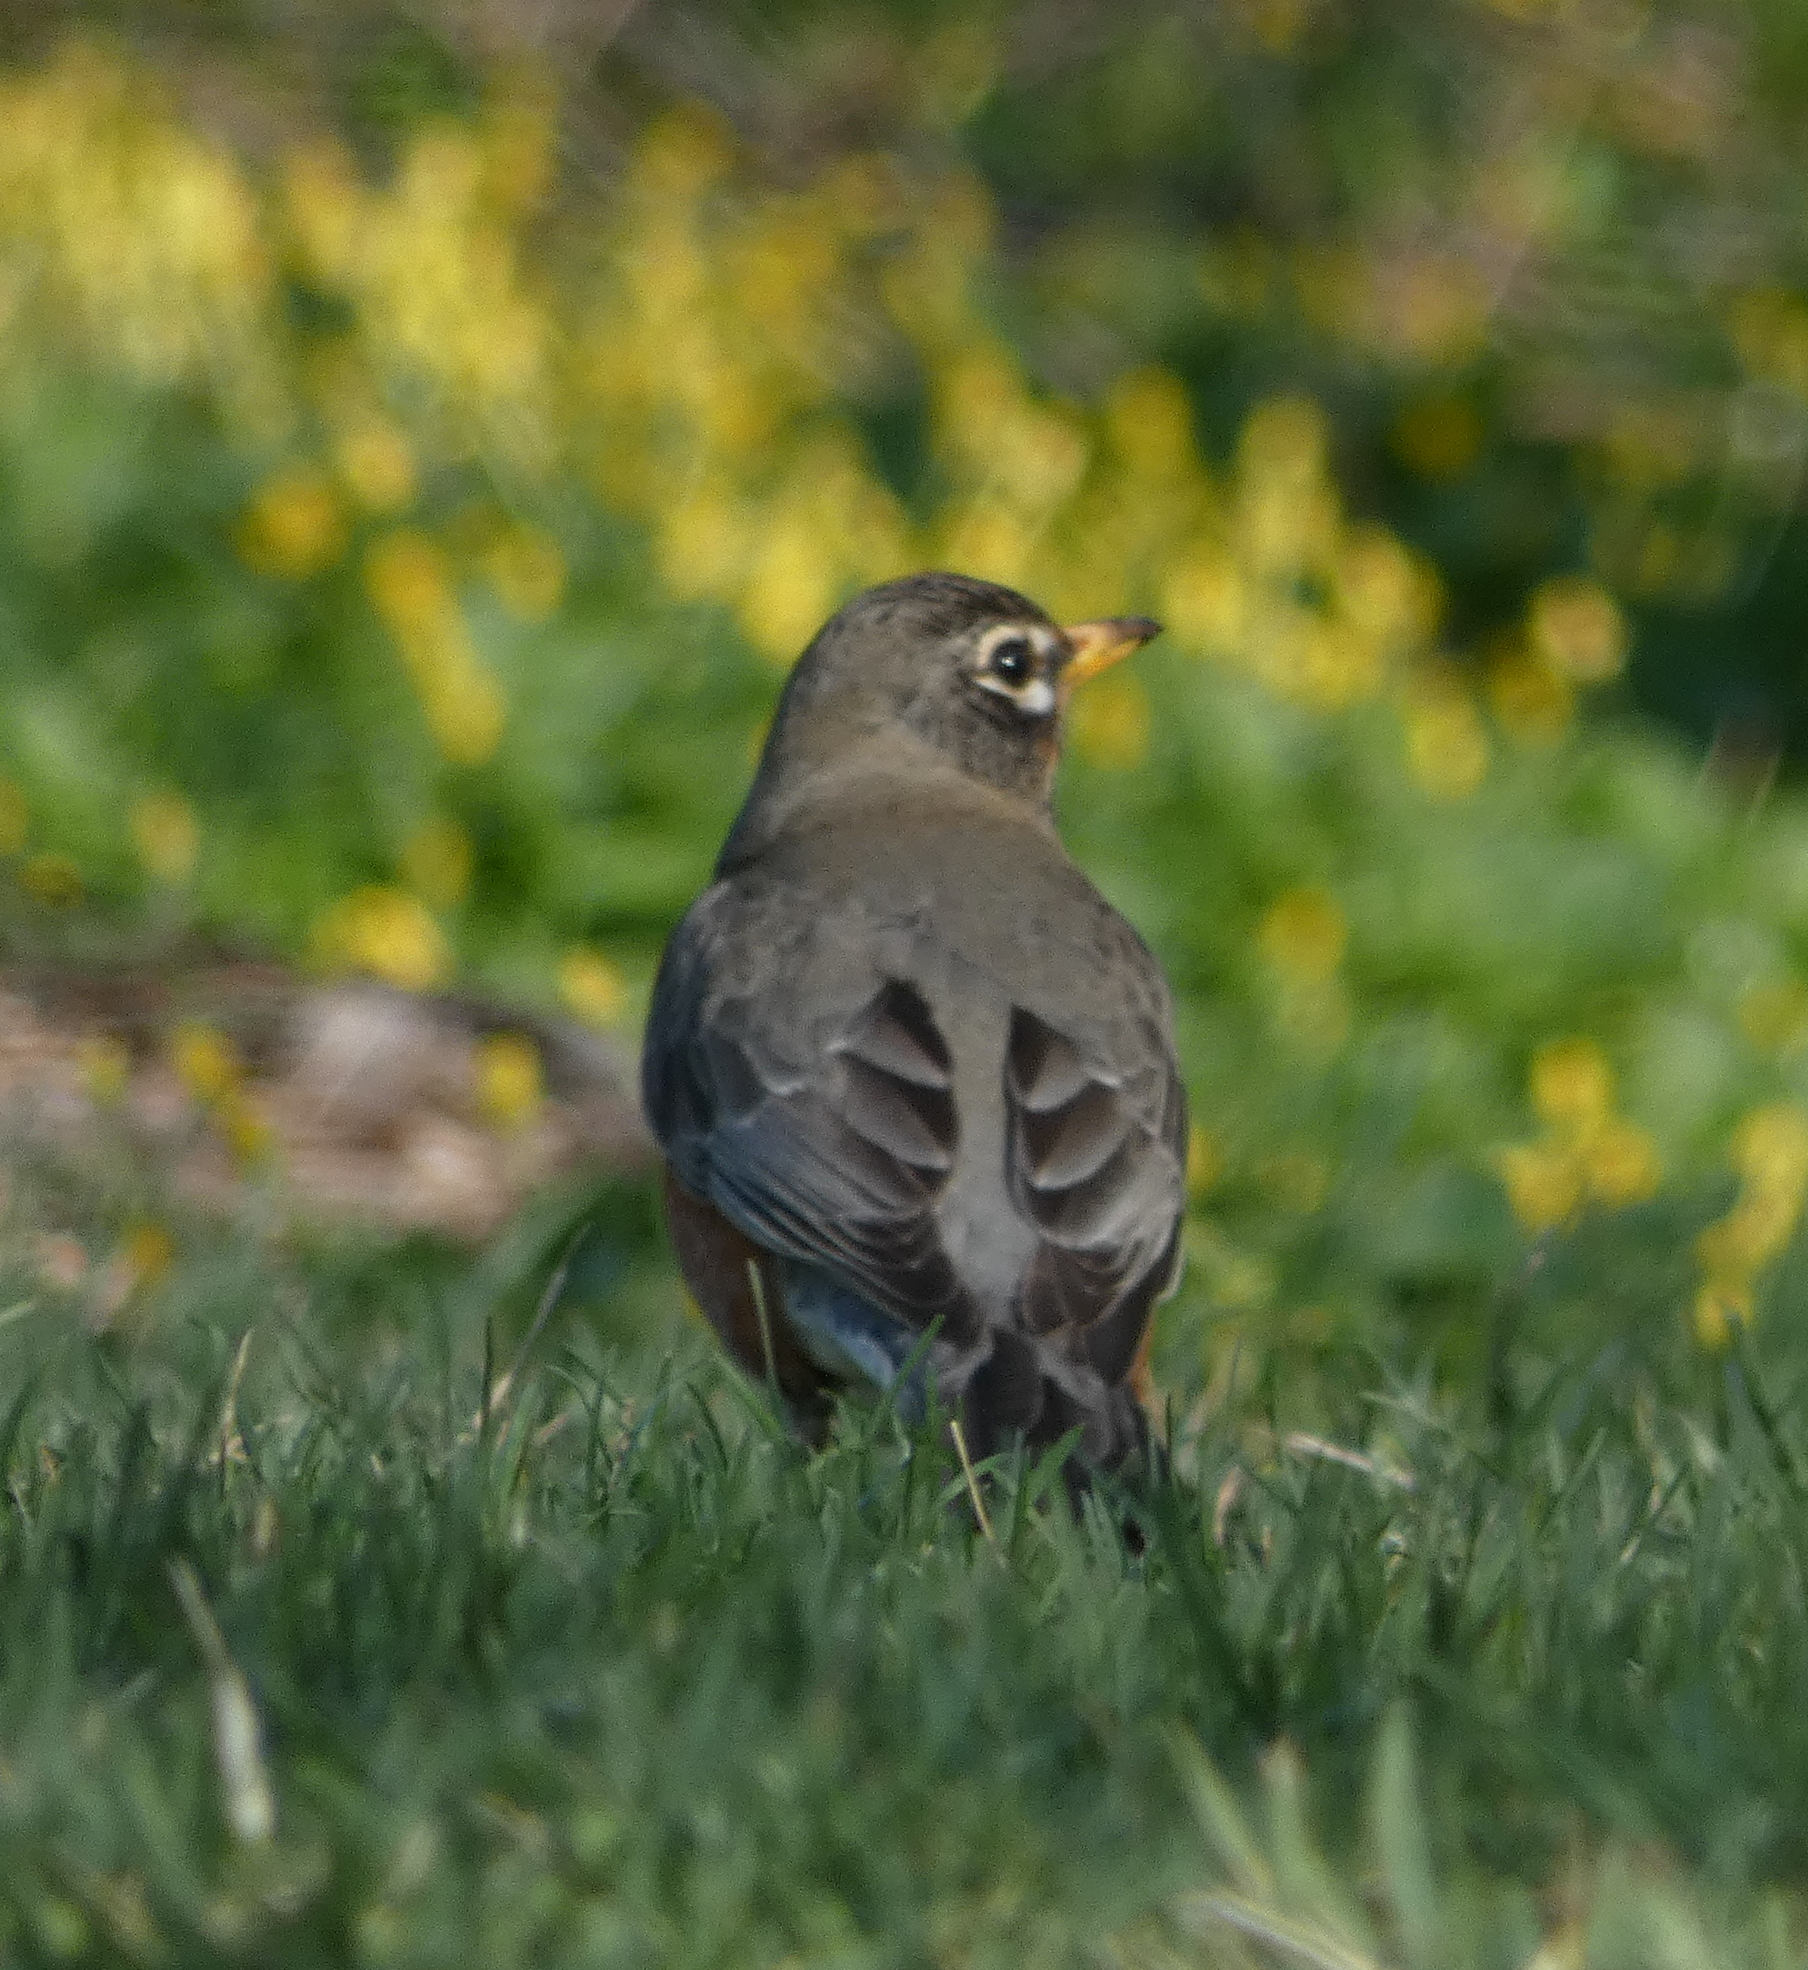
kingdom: Animalia
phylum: Chordata
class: Aves
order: Passeriformes
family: Turdidae
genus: Turdus
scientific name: Turdus migratorius
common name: American robin
